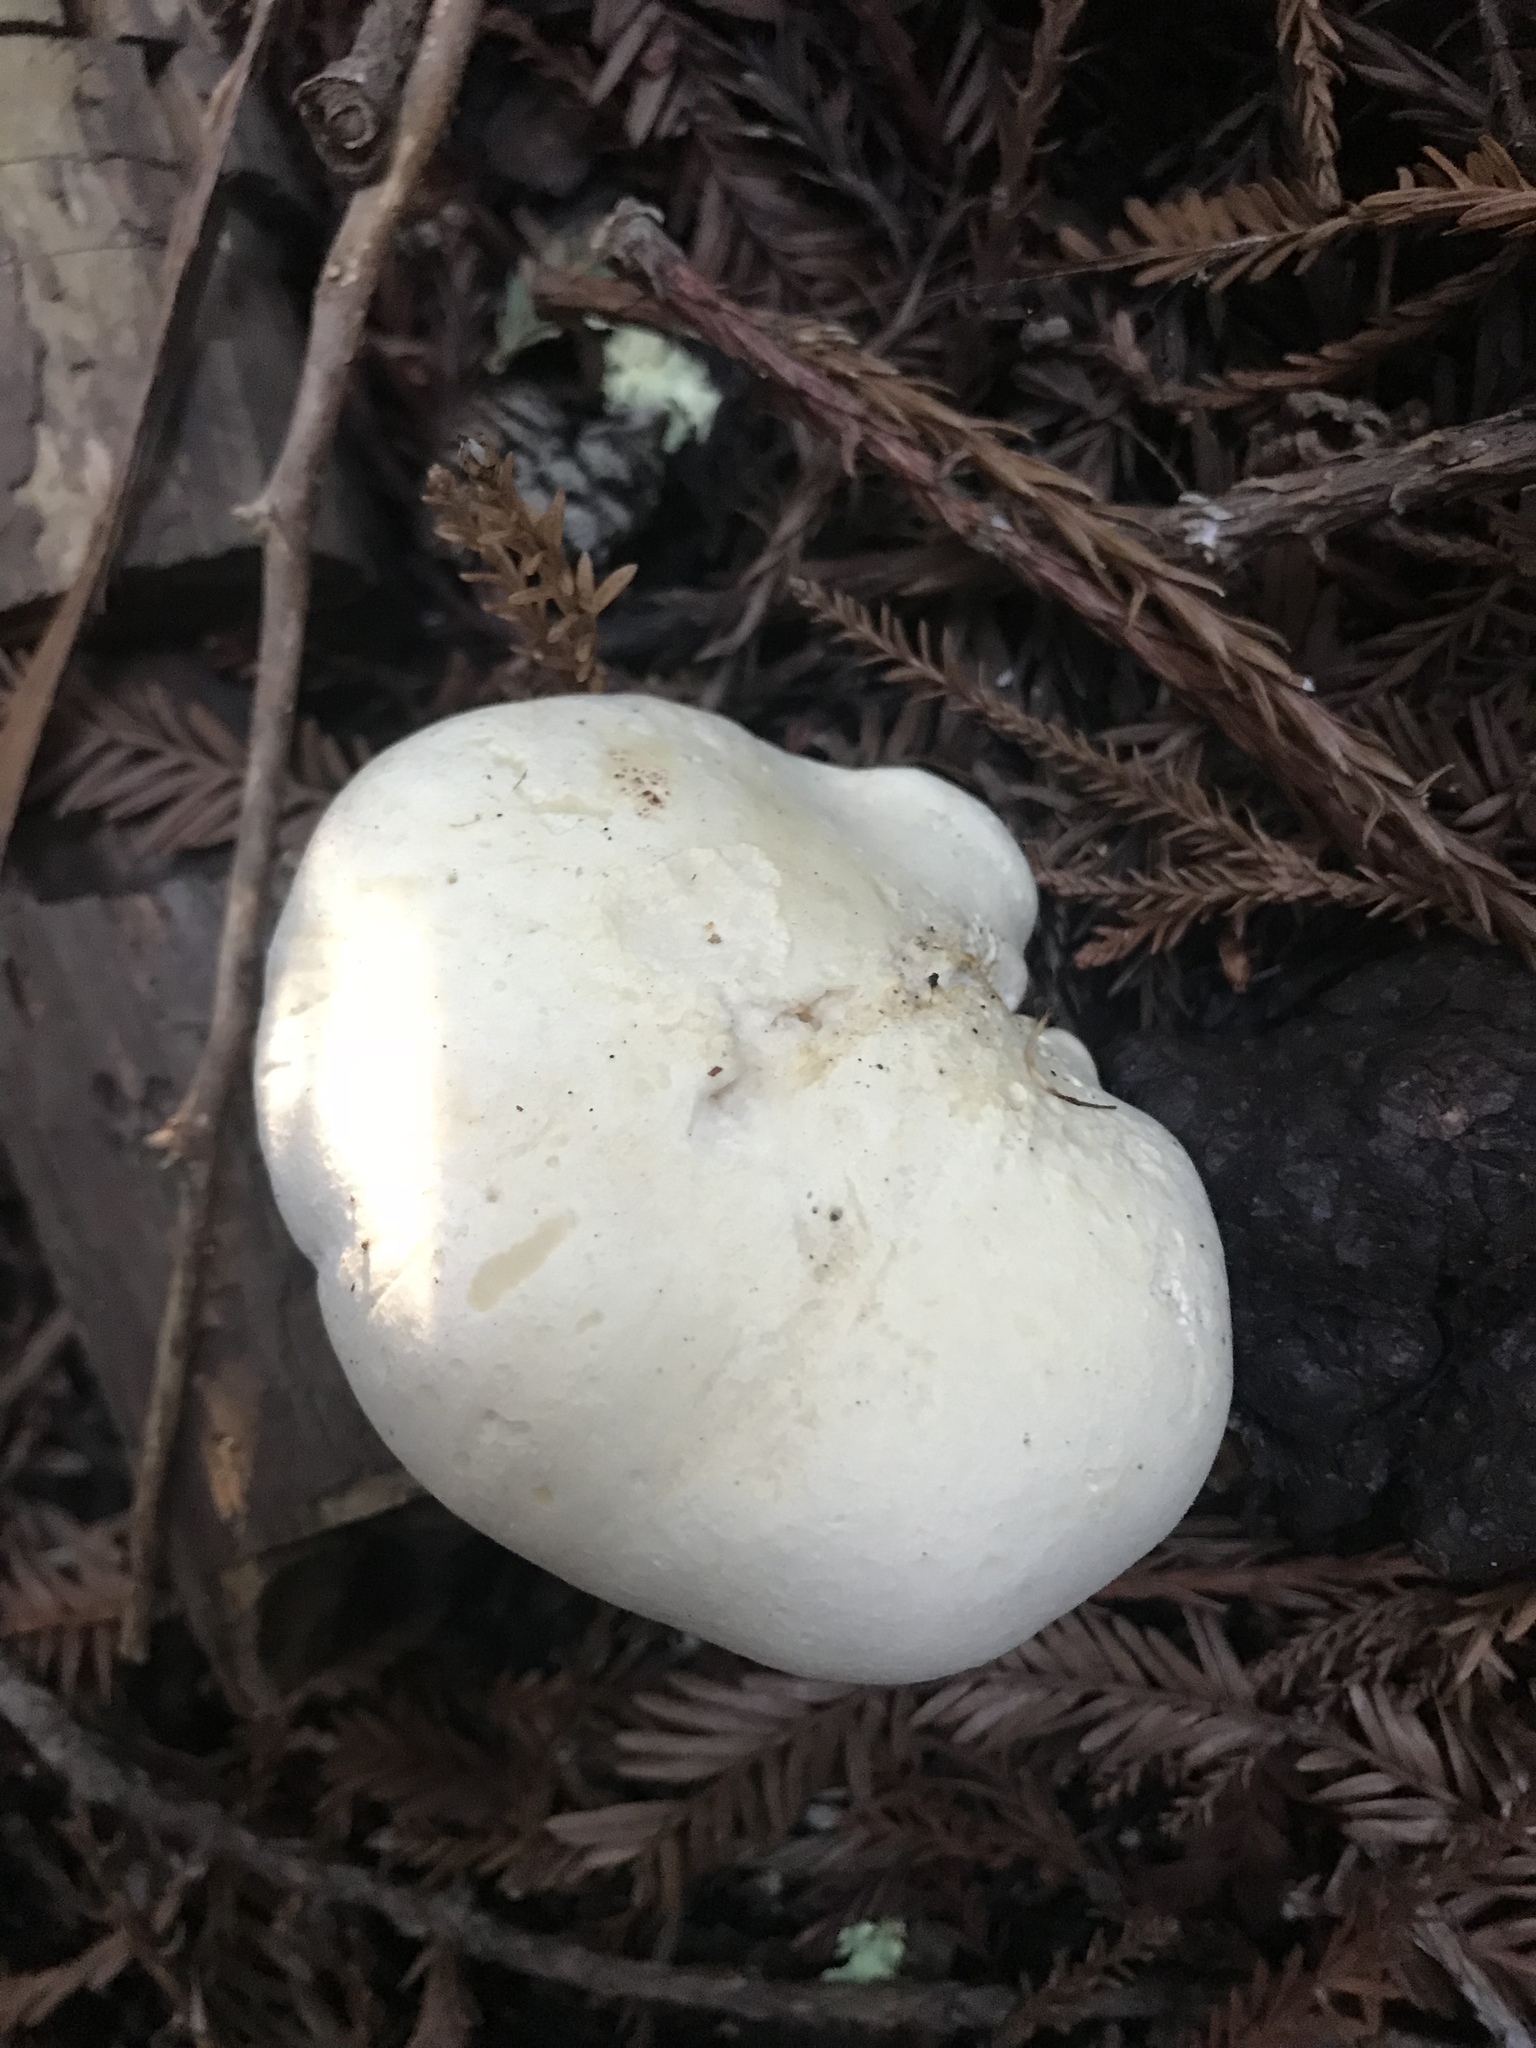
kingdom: Fungi
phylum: Basidiomycota
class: Agaricomycetes
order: Agaricales
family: Tricholomataceae
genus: Leucopaxillus
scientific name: Leucopaxillus albissimus
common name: Large white leucopax
